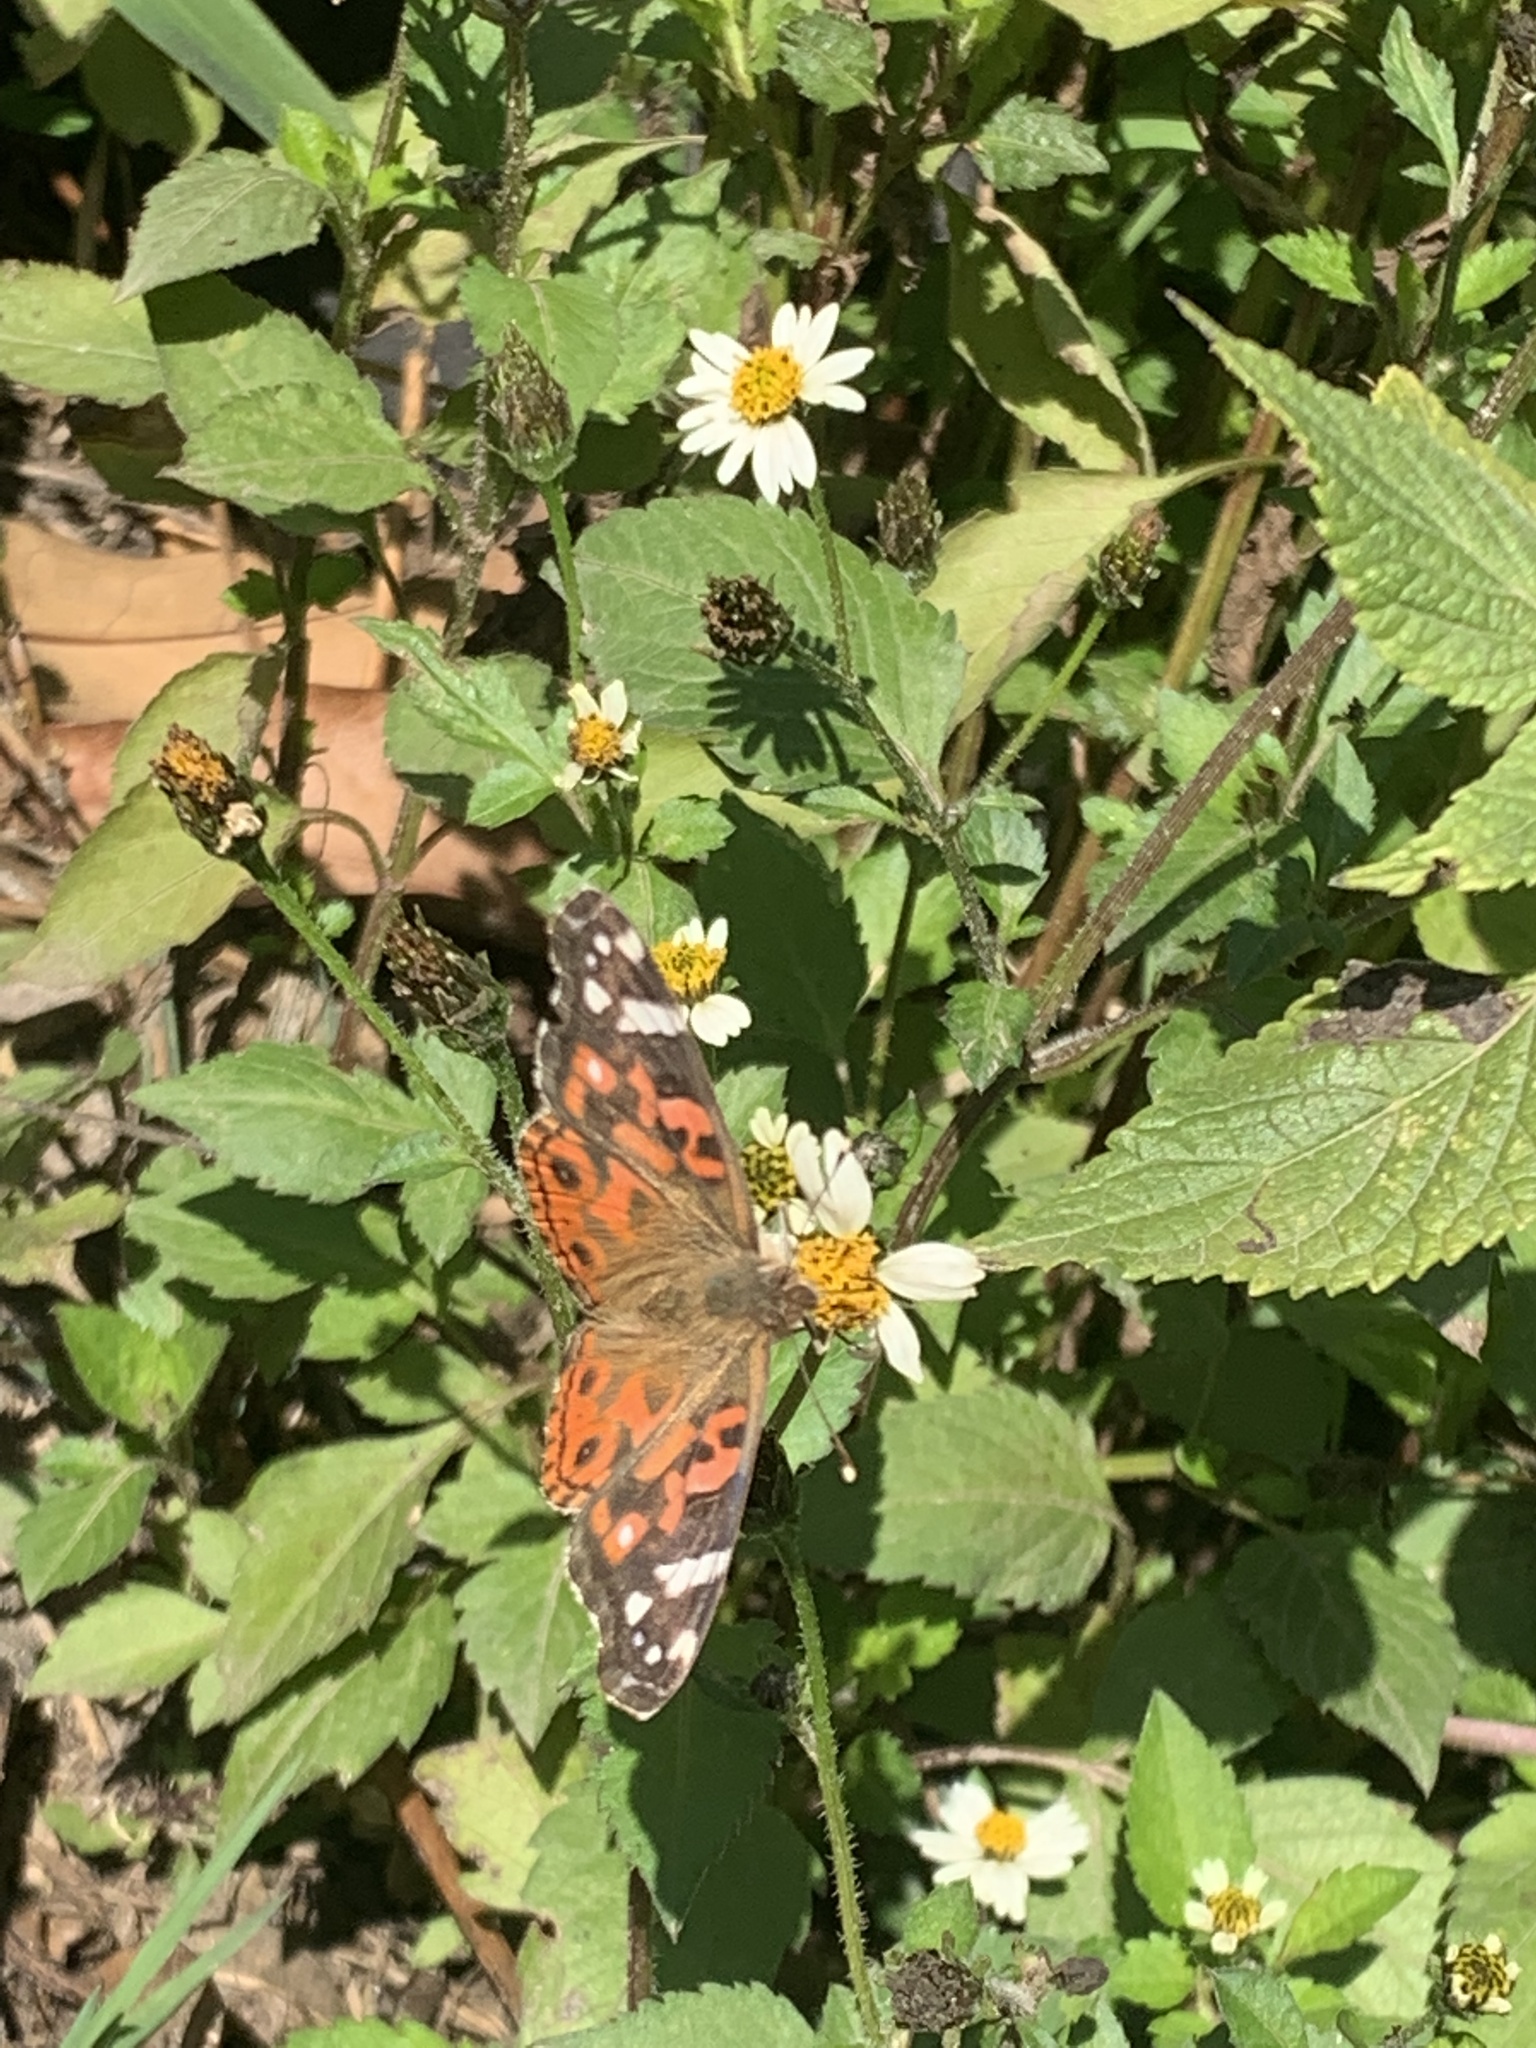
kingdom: Animalia
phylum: Arthropoda
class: Insecta
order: Lepidoptera
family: Nymphalidae
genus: Vanessa
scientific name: Vanessa braziliensis
